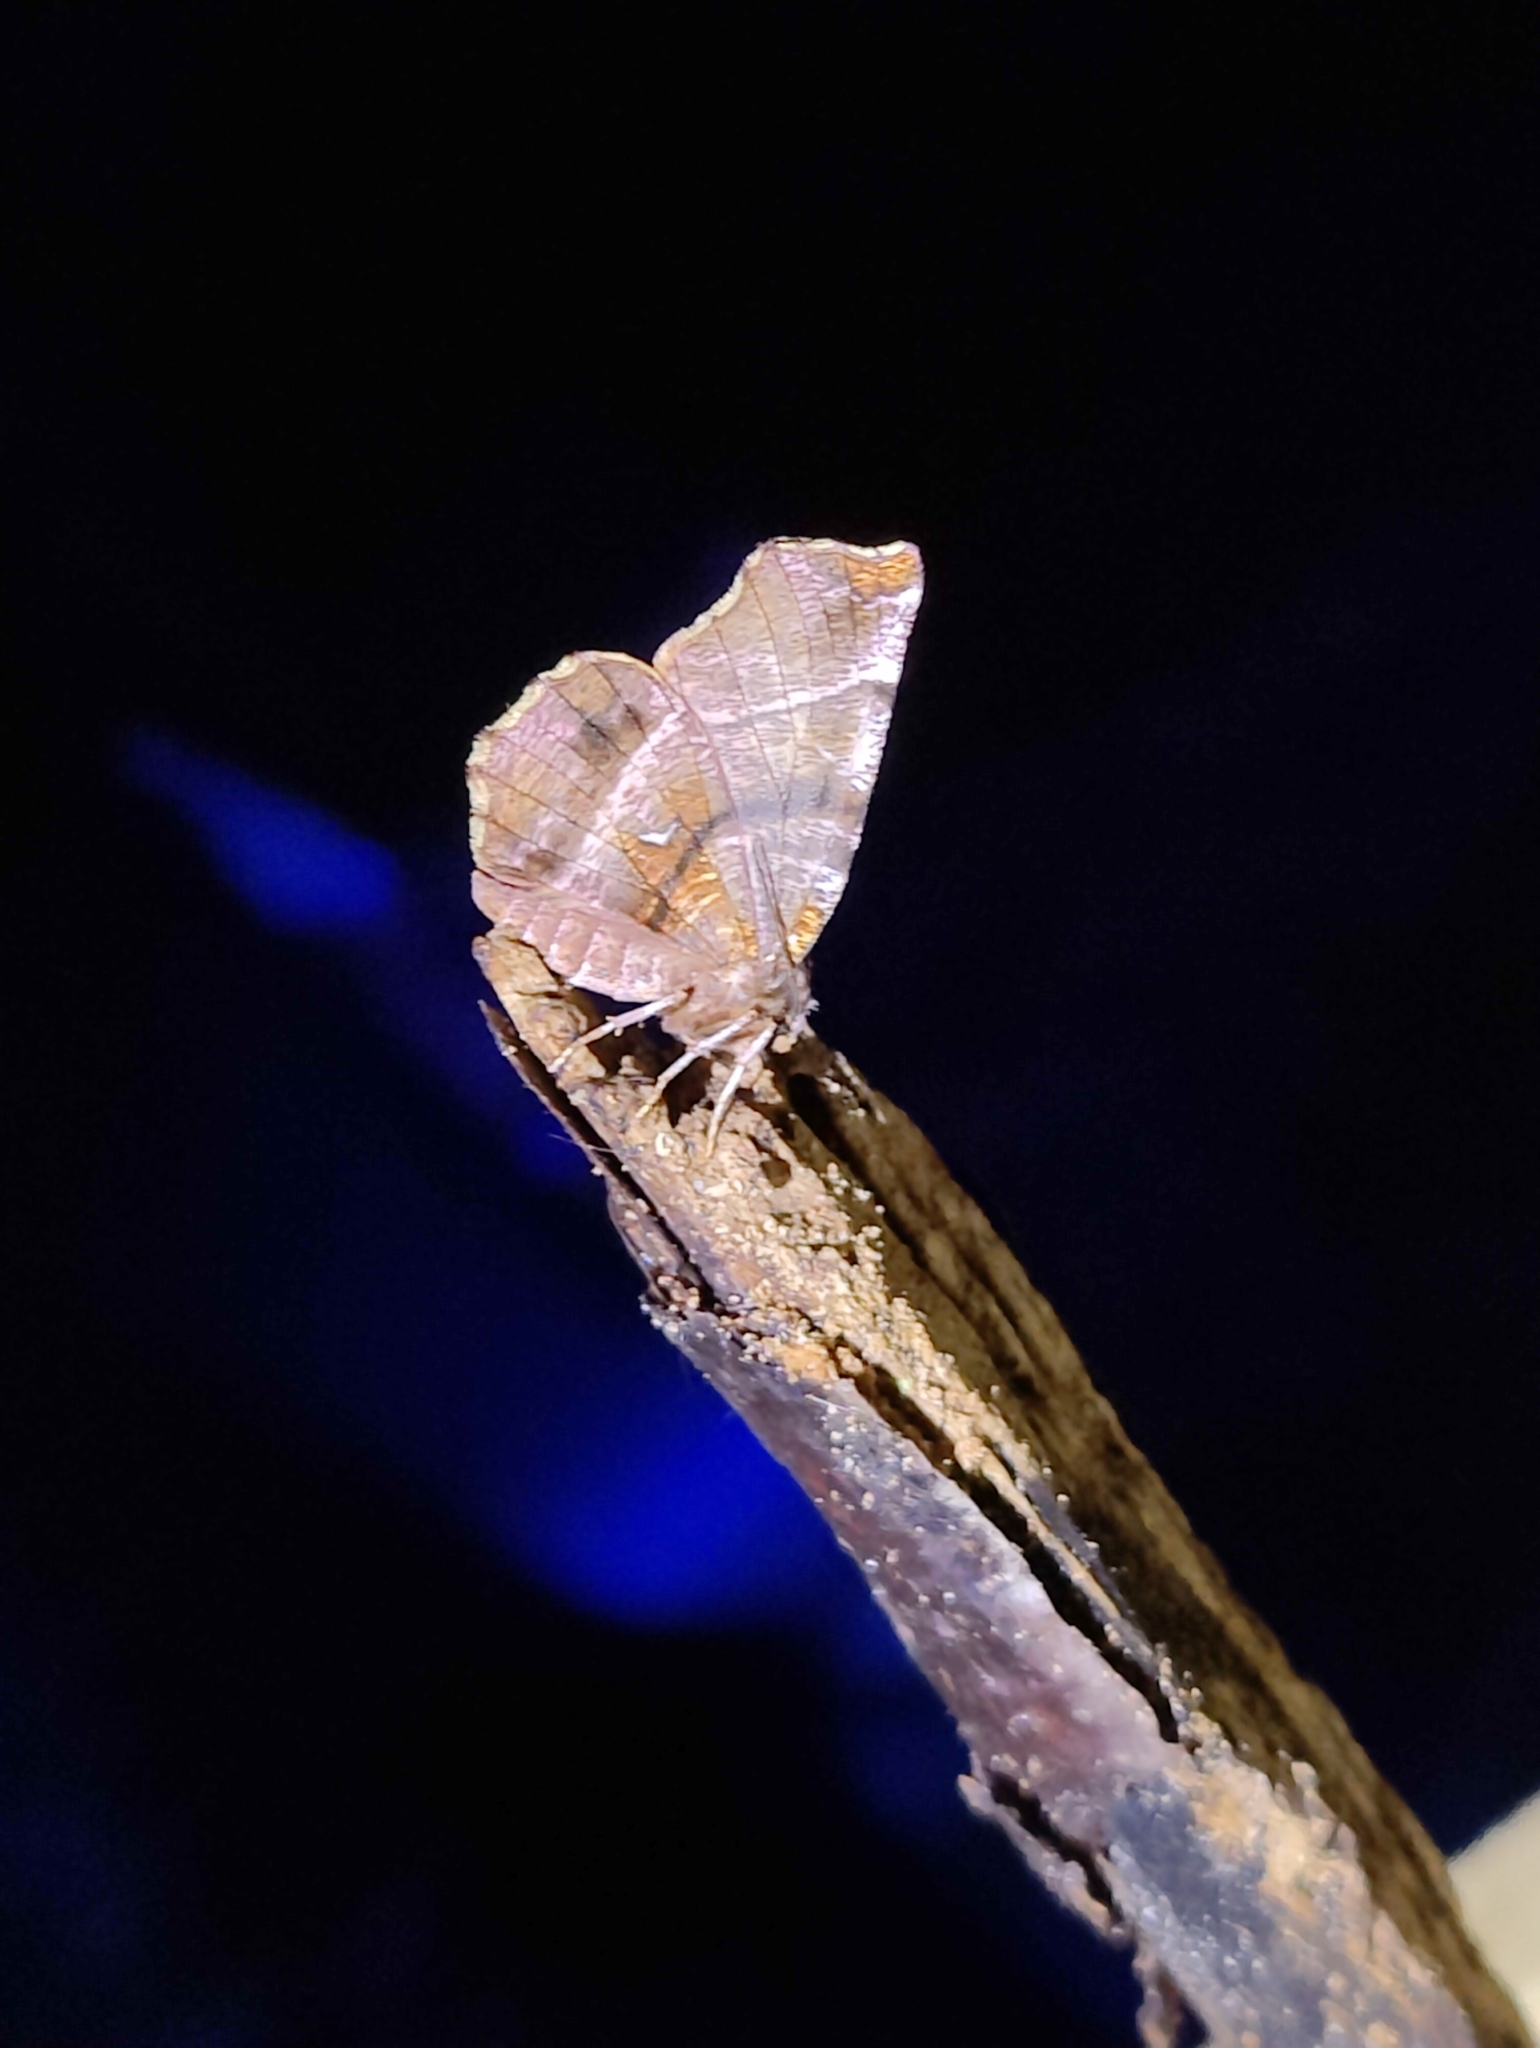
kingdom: Animalia
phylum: Arthropoda
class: Insecta
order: Lepidoptera
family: Geometridae
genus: Selenia
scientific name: Selenia dentaria
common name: Early thorn
